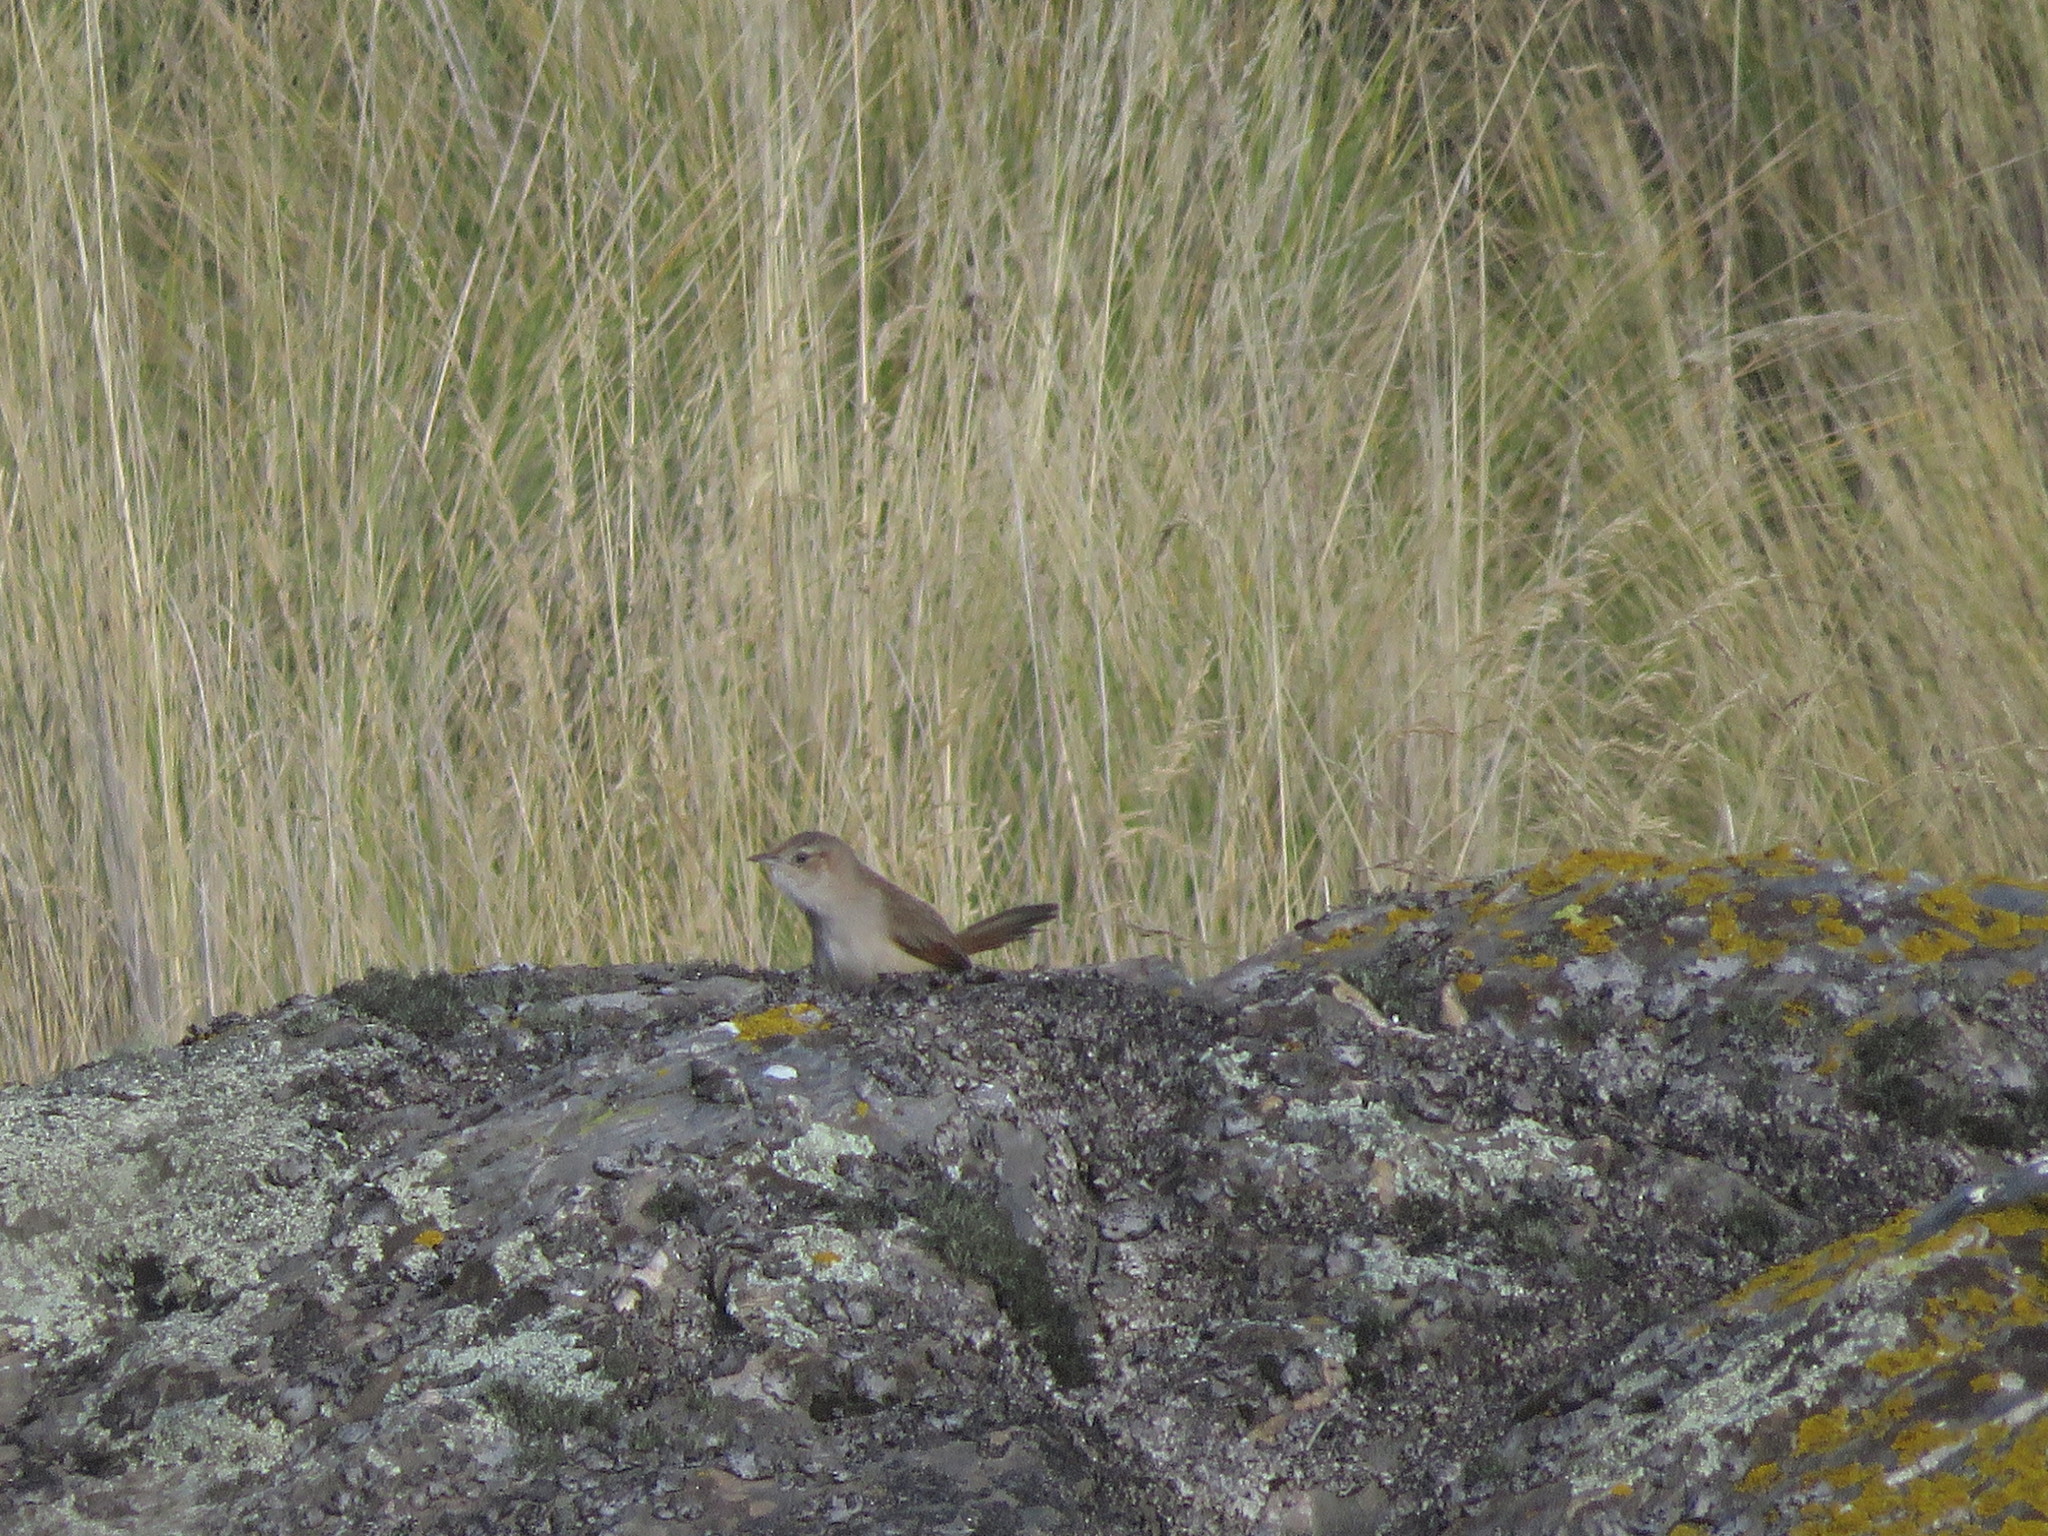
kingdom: Animalia
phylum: Chordata
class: Aves
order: Passeriformes
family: Furnariidae
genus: Phacellodomus
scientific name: Phacellodomus striaticeps
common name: Streak-fronted thornbird
